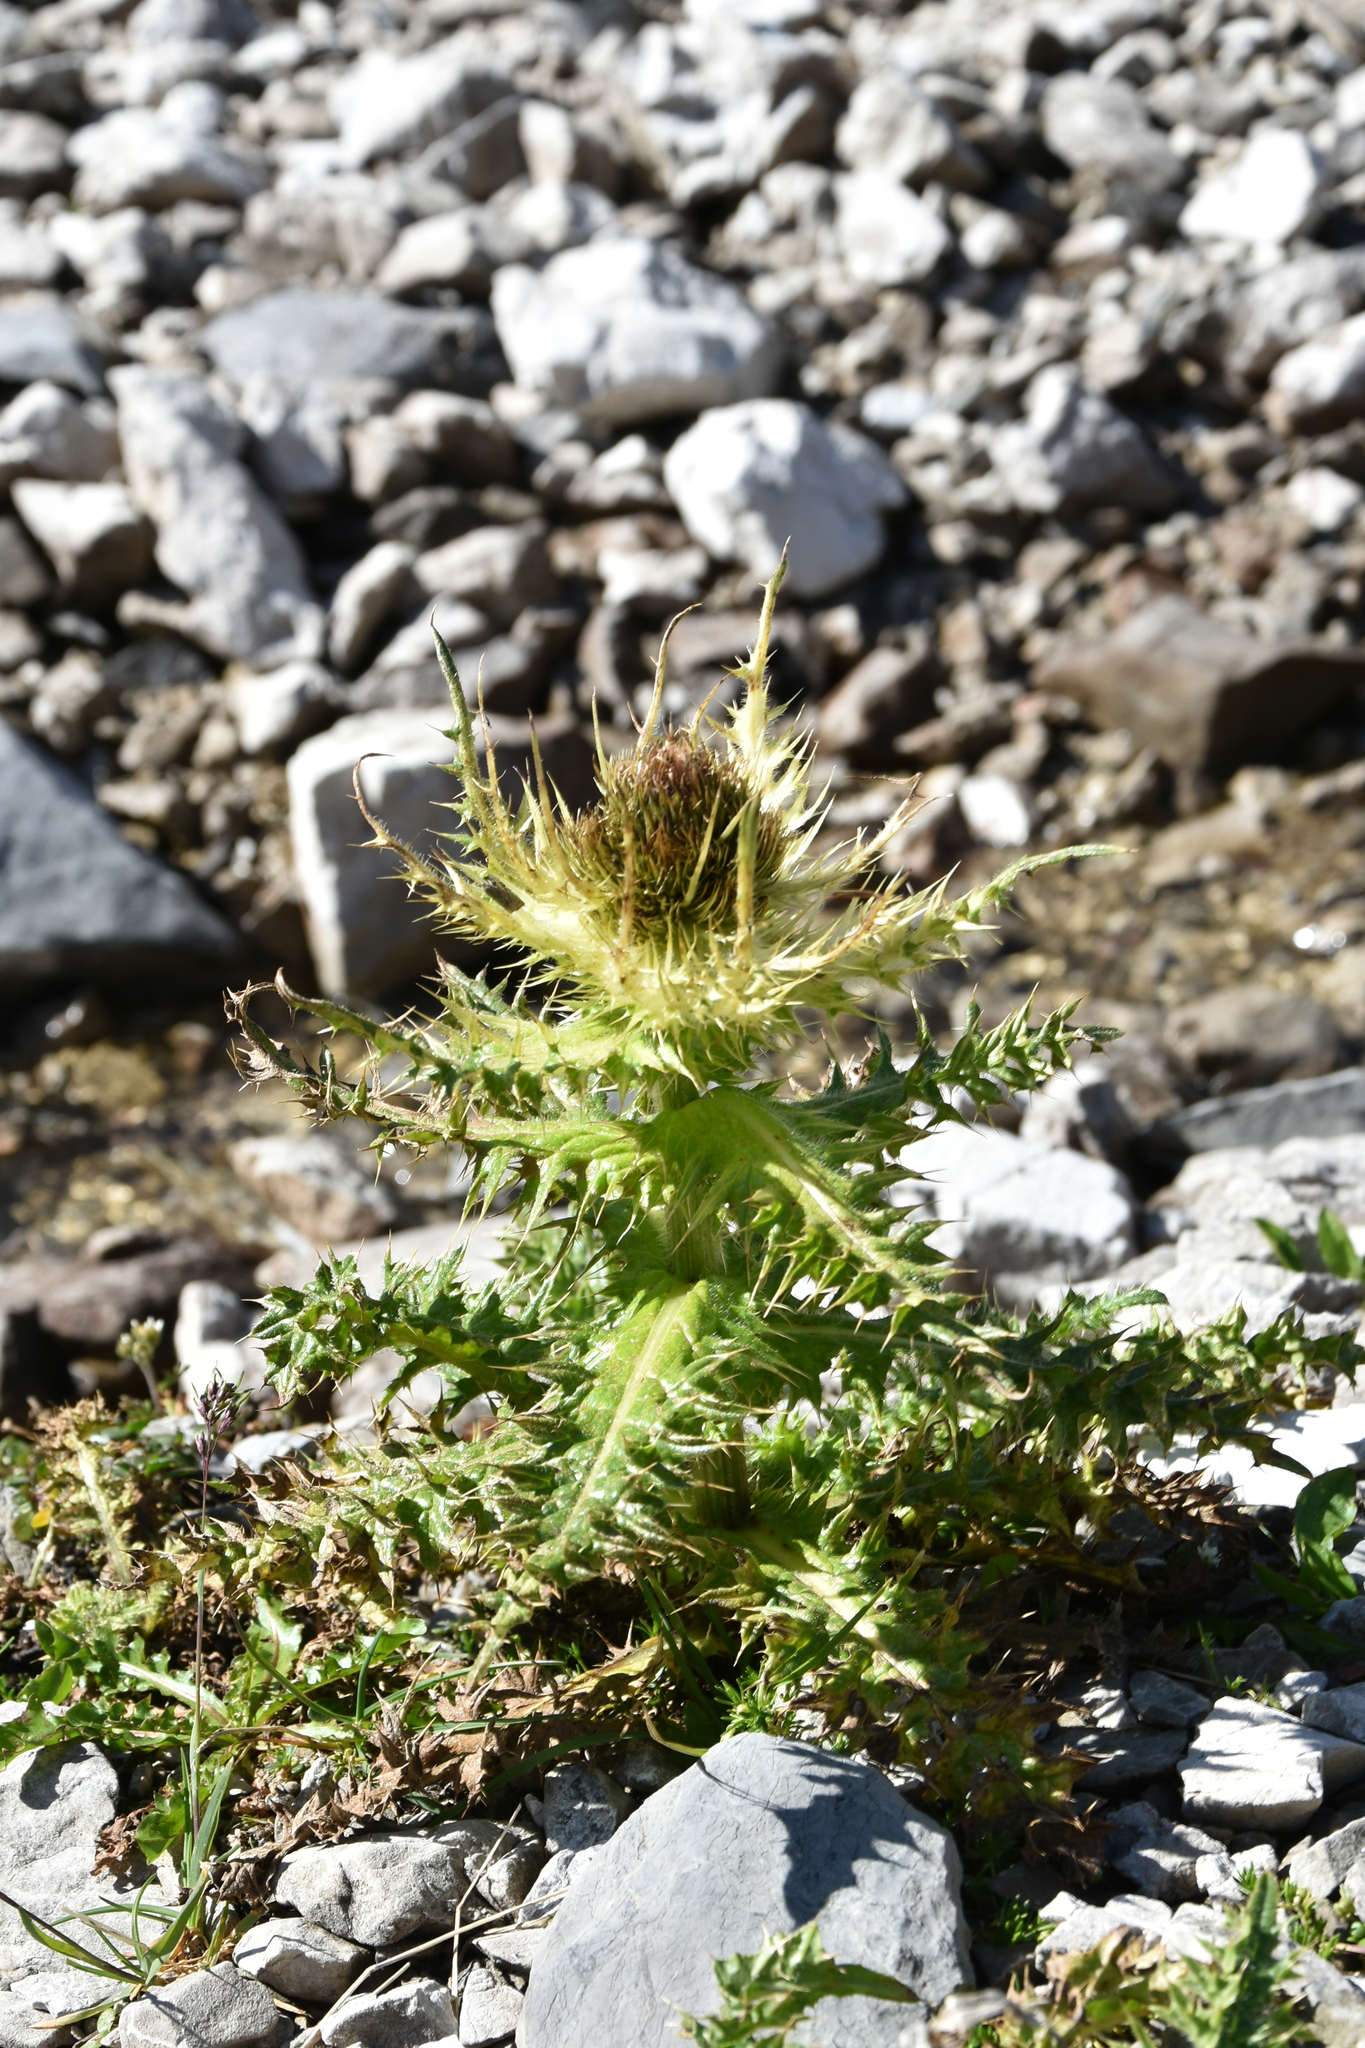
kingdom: Plantae
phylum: Tracheophyta
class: Magnoliopsida
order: Asterales
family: Asteraceae
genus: Cirsium
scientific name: Cirsium spinosissimum
